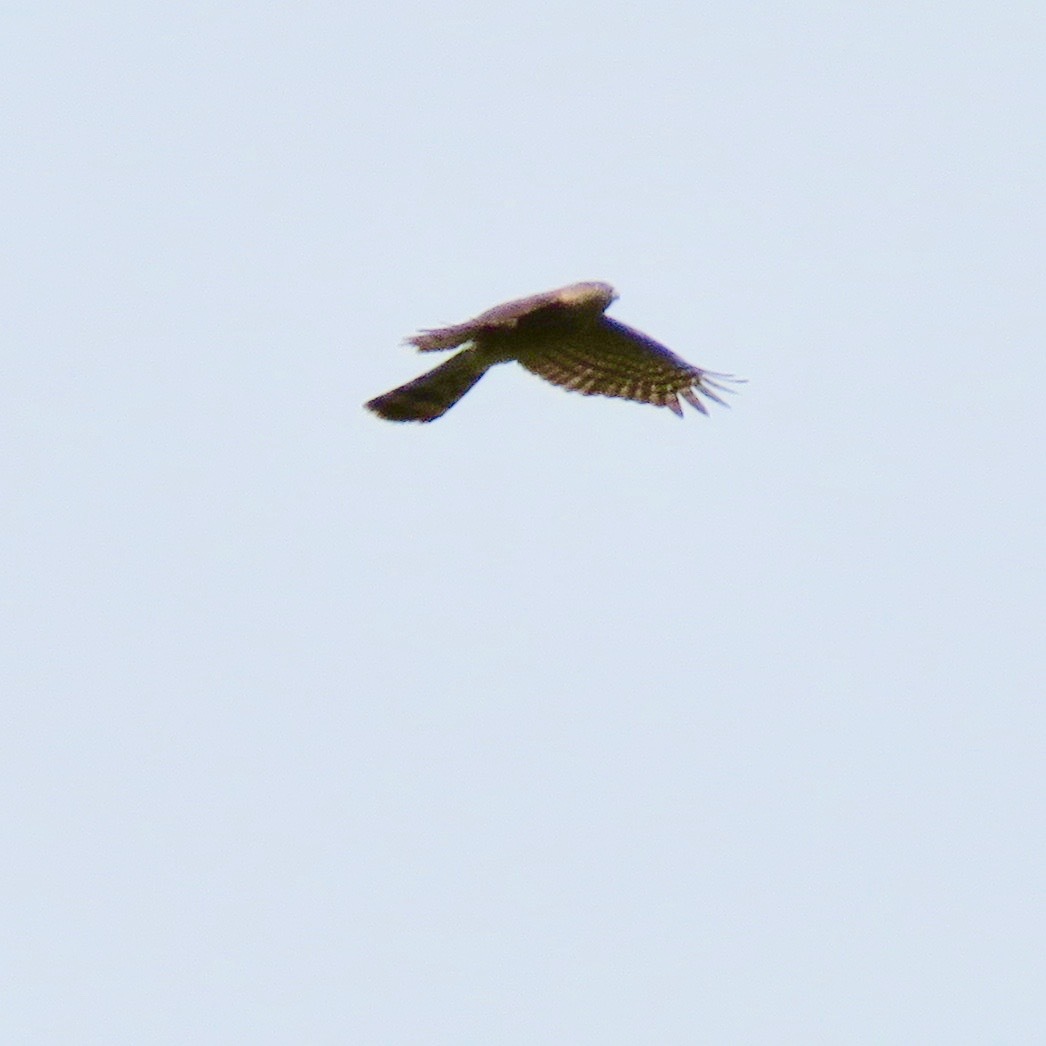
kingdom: Animalia
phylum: Chordata
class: Aves
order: Accipitriformes
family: Accipitridae
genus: Accipiter
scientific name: Accipiter striatus
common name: Sharp-shinned hawk
